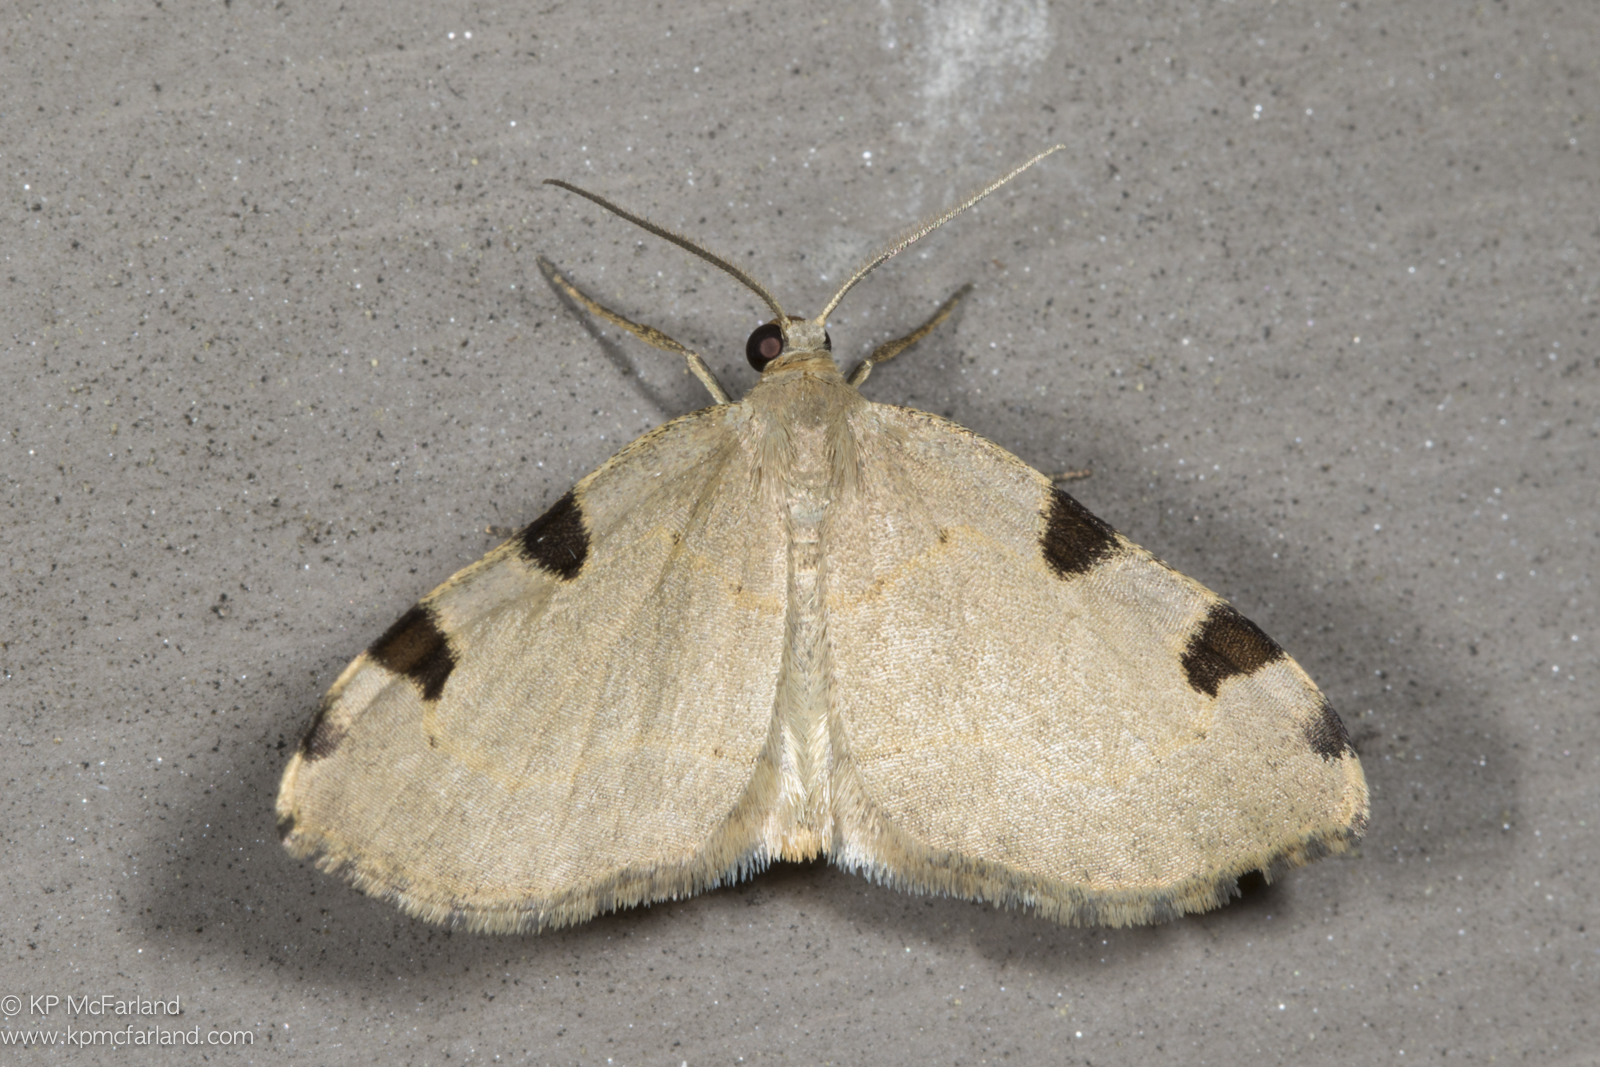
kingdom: Animalia
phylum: Arthropoda
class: Insecta
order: Lepidoptera
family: Geometridae
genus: Heterophleps
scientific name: Heterophleps triguttaria
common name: Three-spotted fillip
